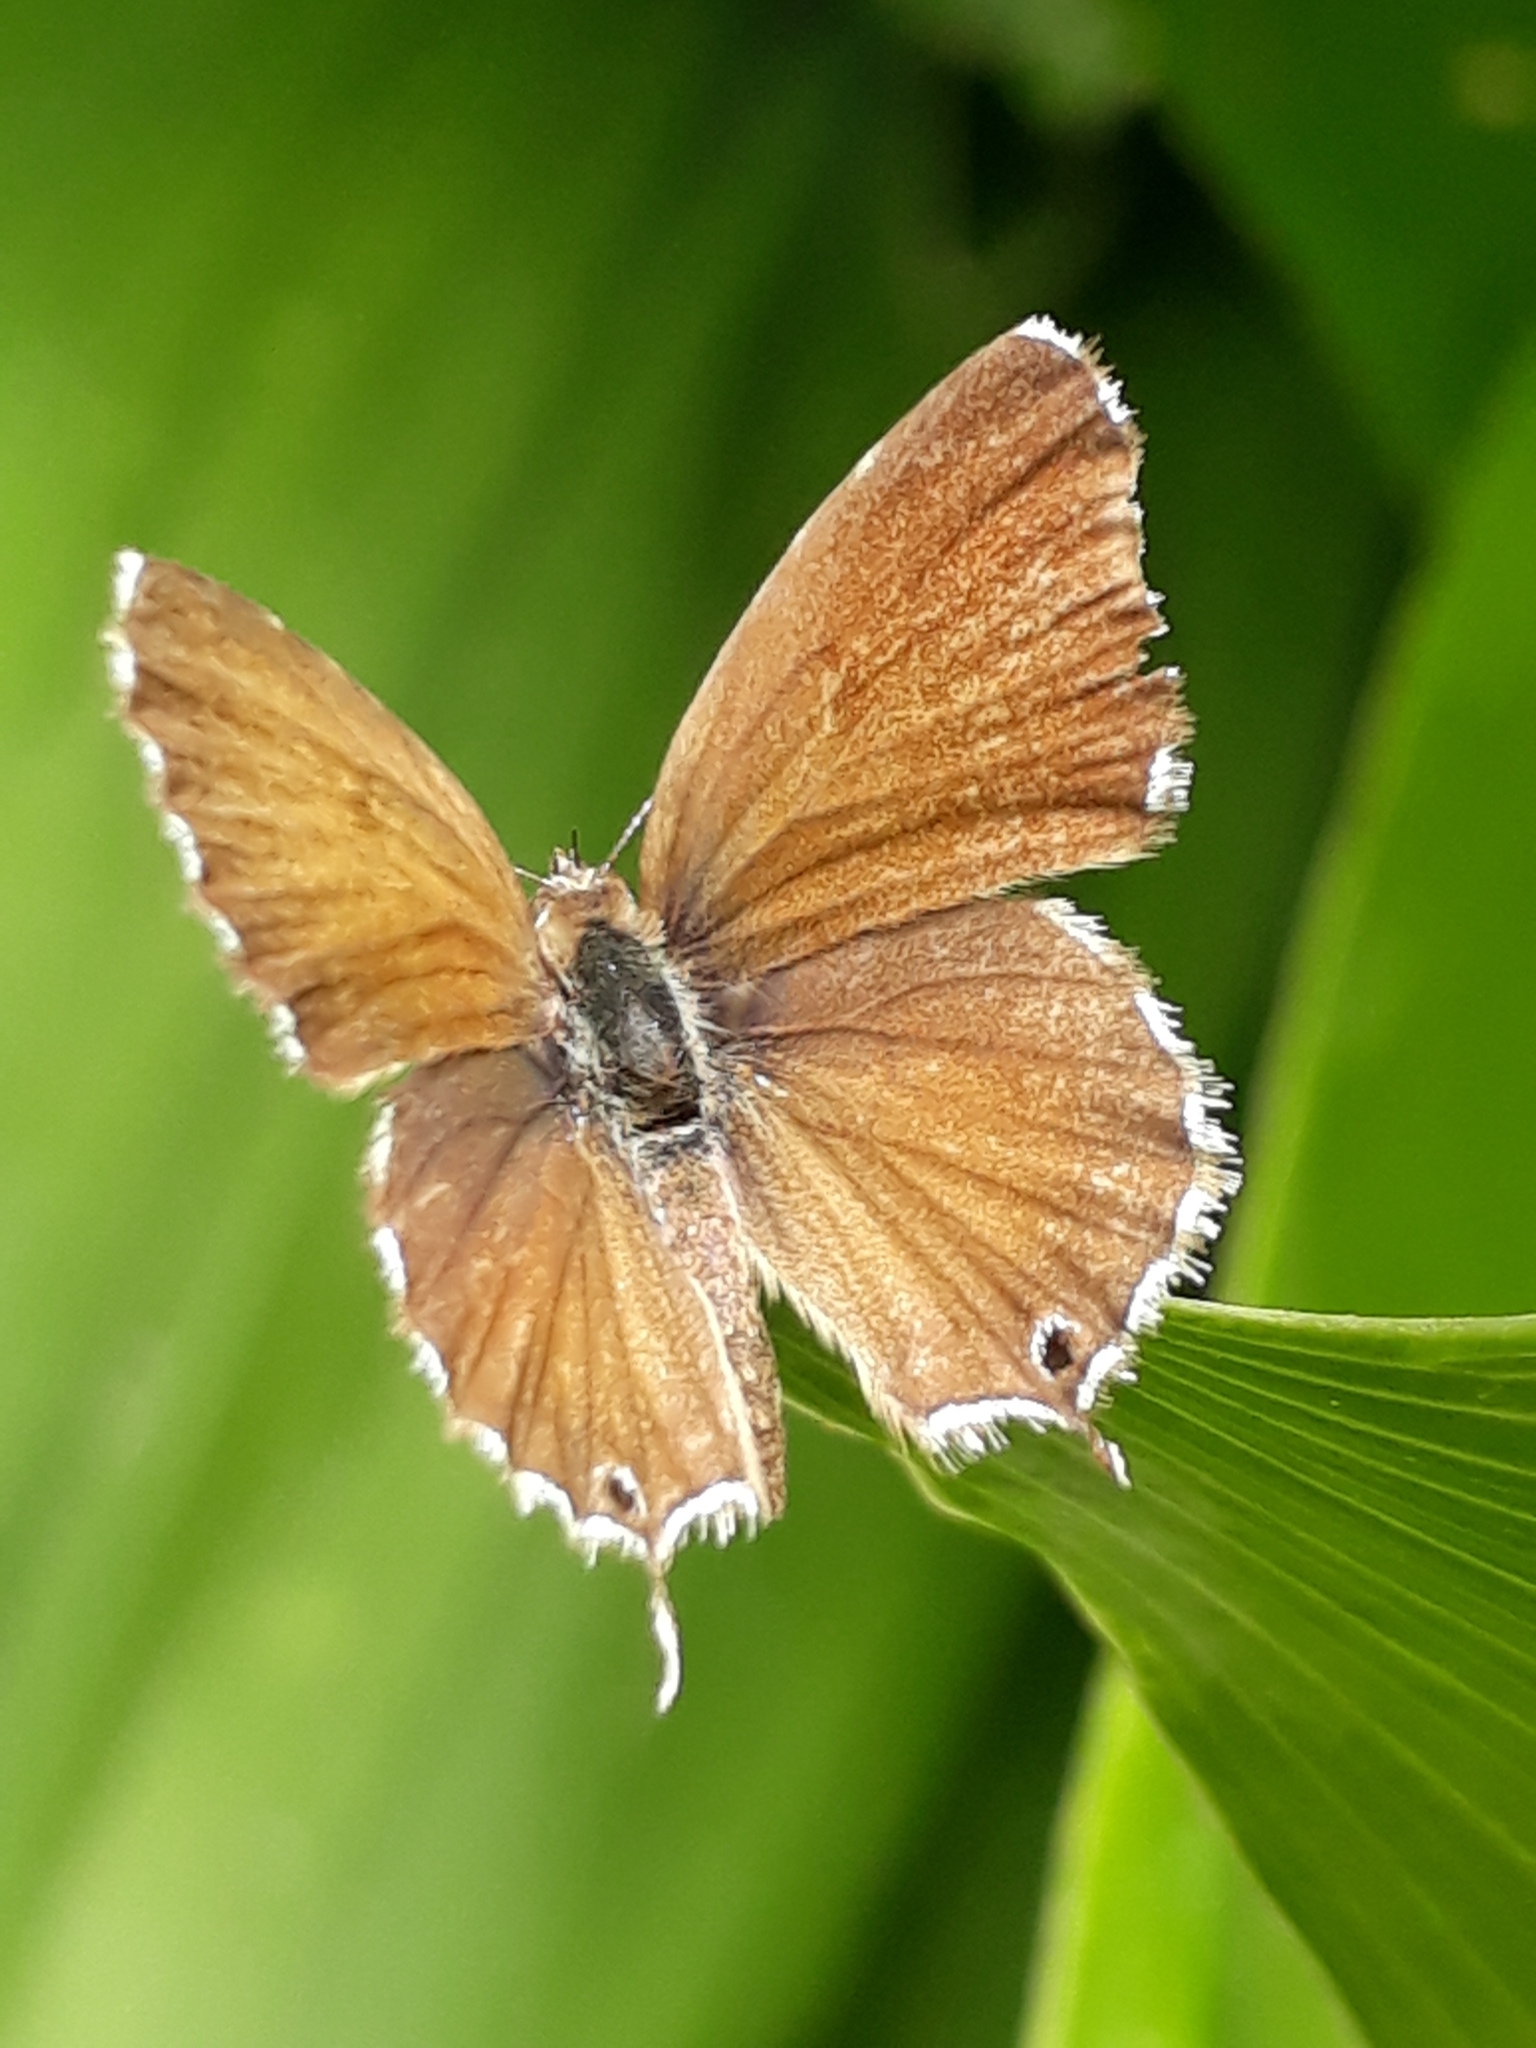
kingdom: Animalia
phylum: Arthropoda
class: Insecta
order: Lepidoptera
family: Lycaenidae
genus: Cacyreus
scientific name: Cacyreus marshalli
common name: Geranium bronze
